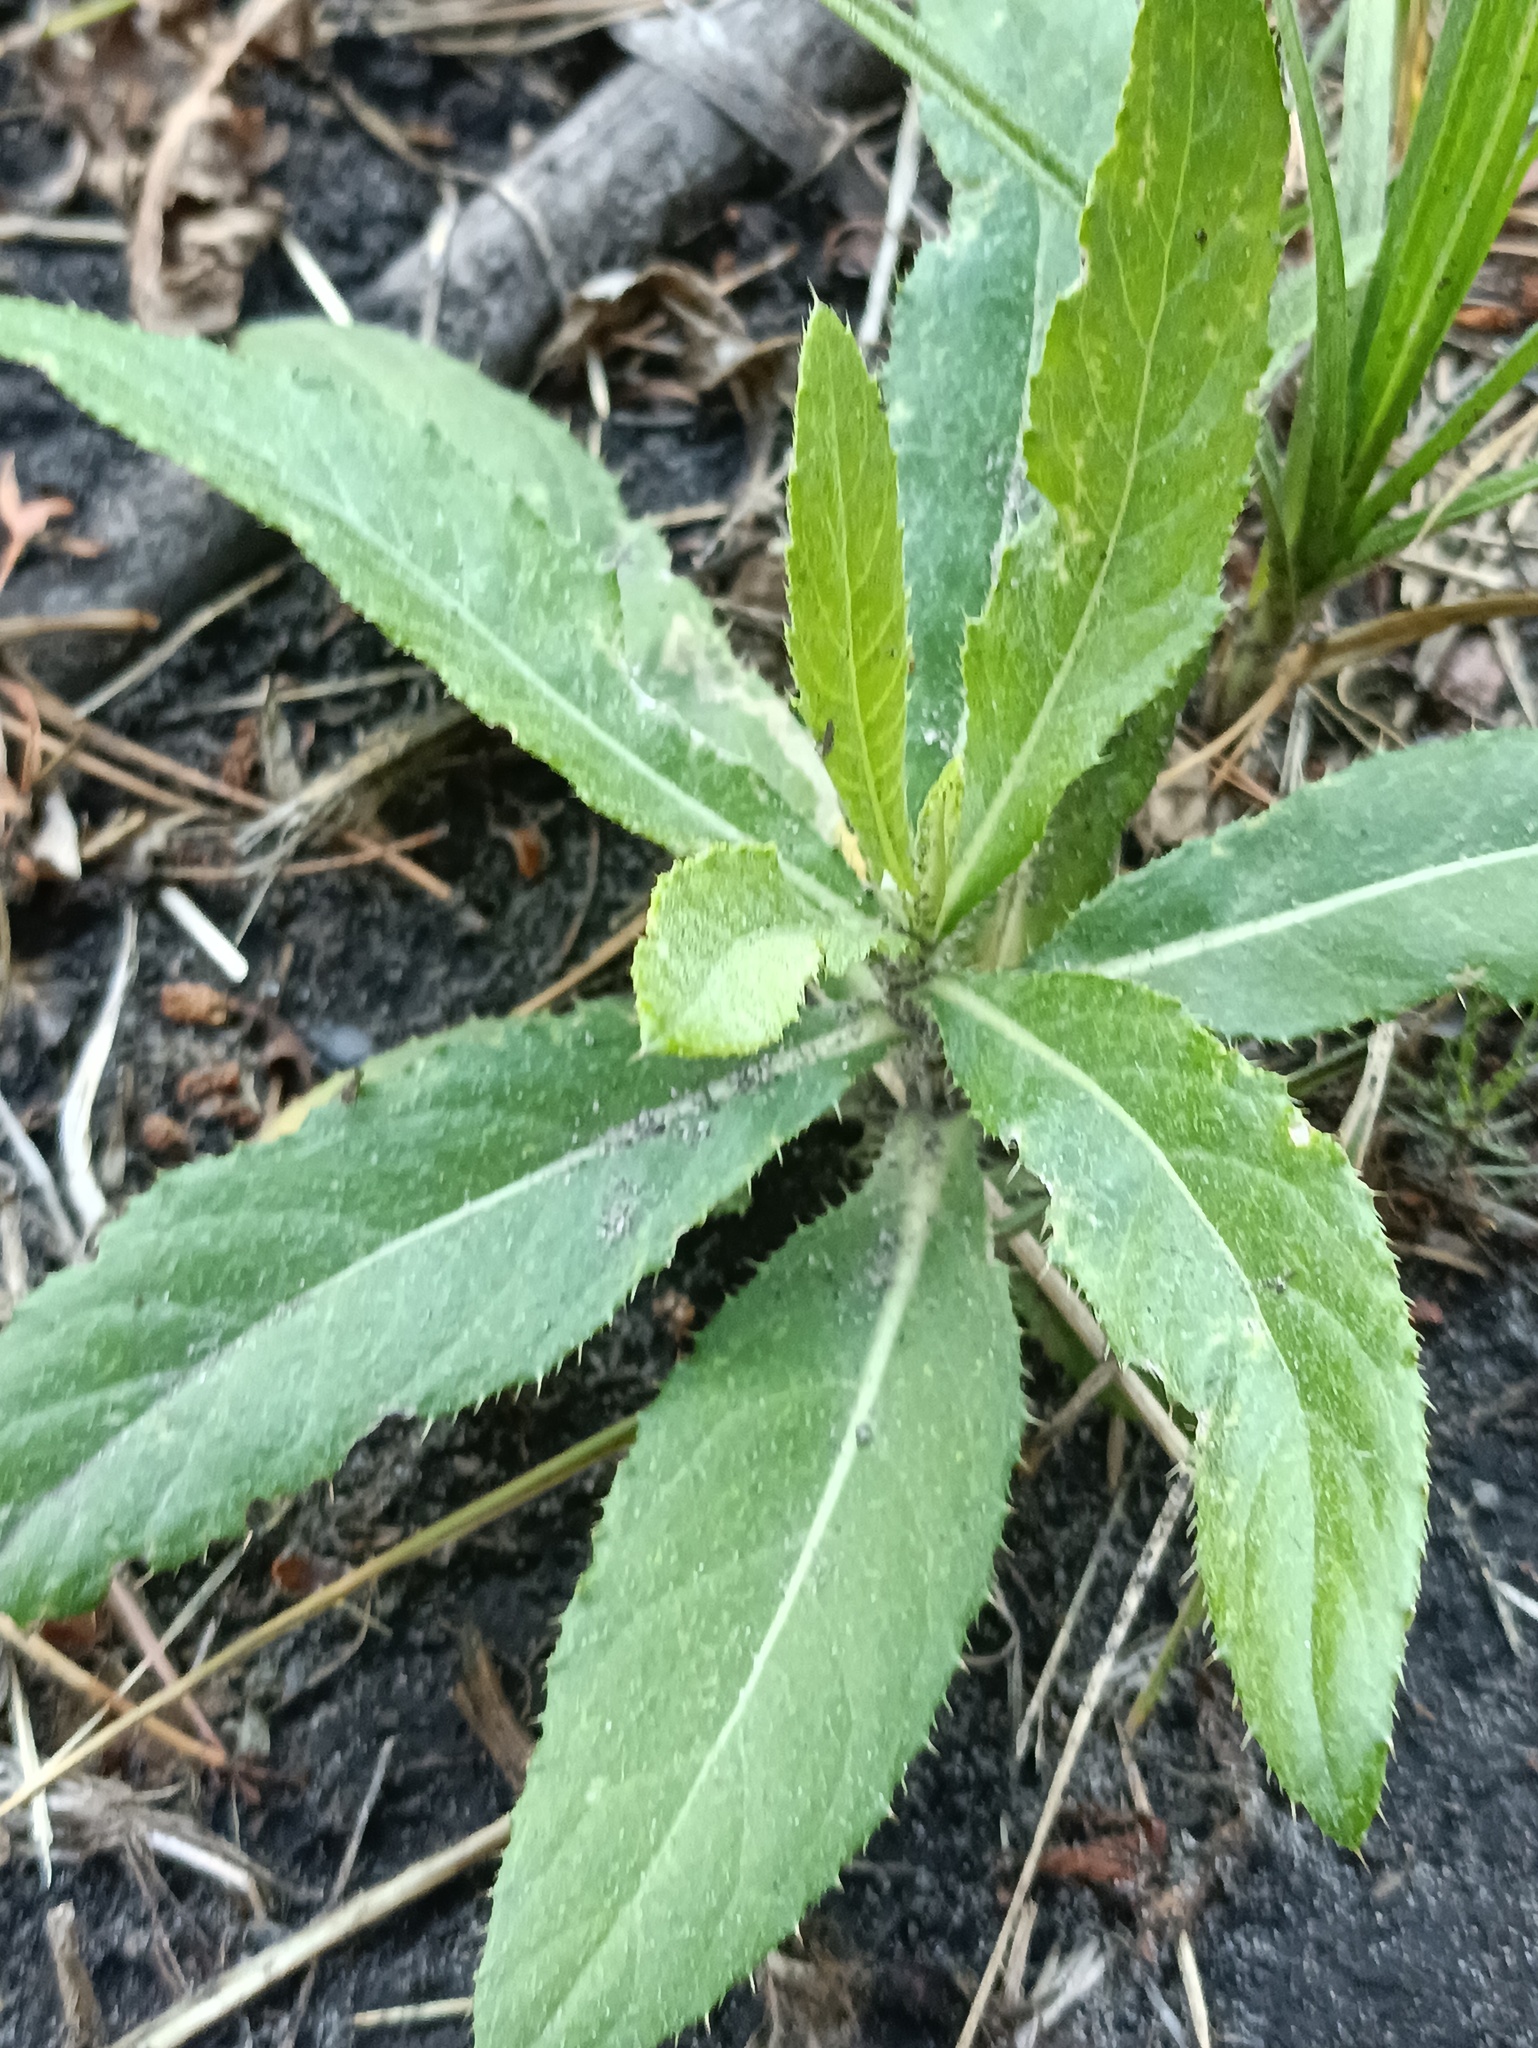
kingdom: Plantae
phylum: Tracheophyta
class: Magnoliopsida
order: Asterales
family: Asteraceae
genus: Cirsium
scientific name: Cirsium arvense
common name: Creeping thistle
